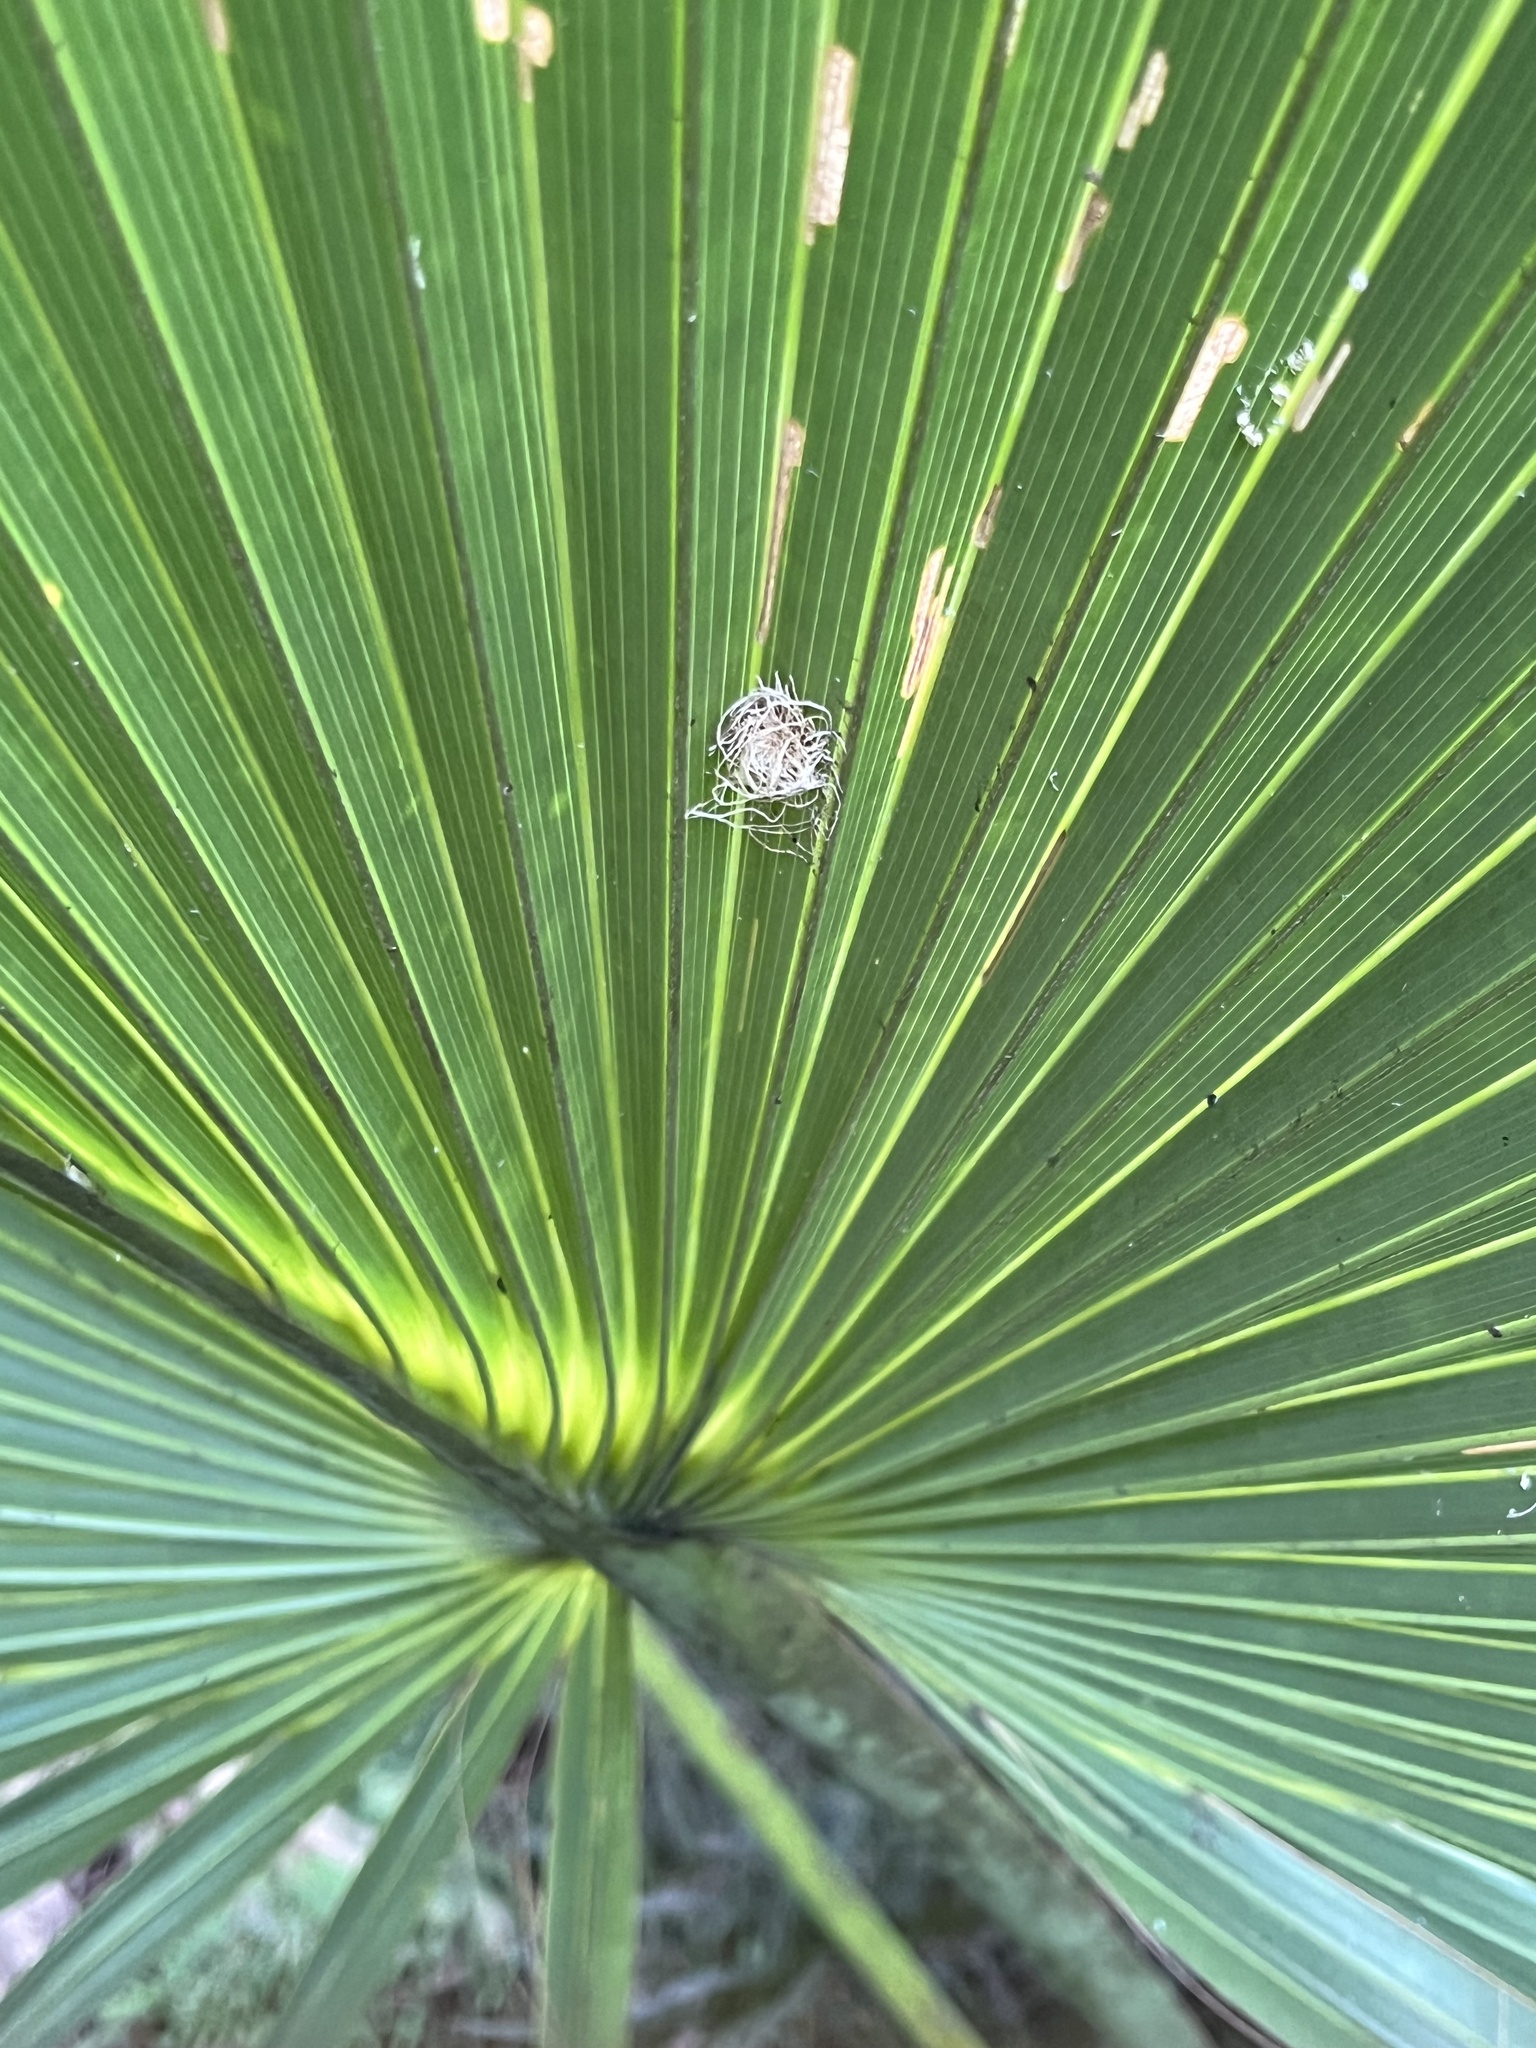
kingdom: Animalia
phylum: Arthropoda
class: Insecta
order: Coleoptera
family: Chrysomelidae
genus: Hemisphaerota
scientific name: Hemisphaerota cyanea
